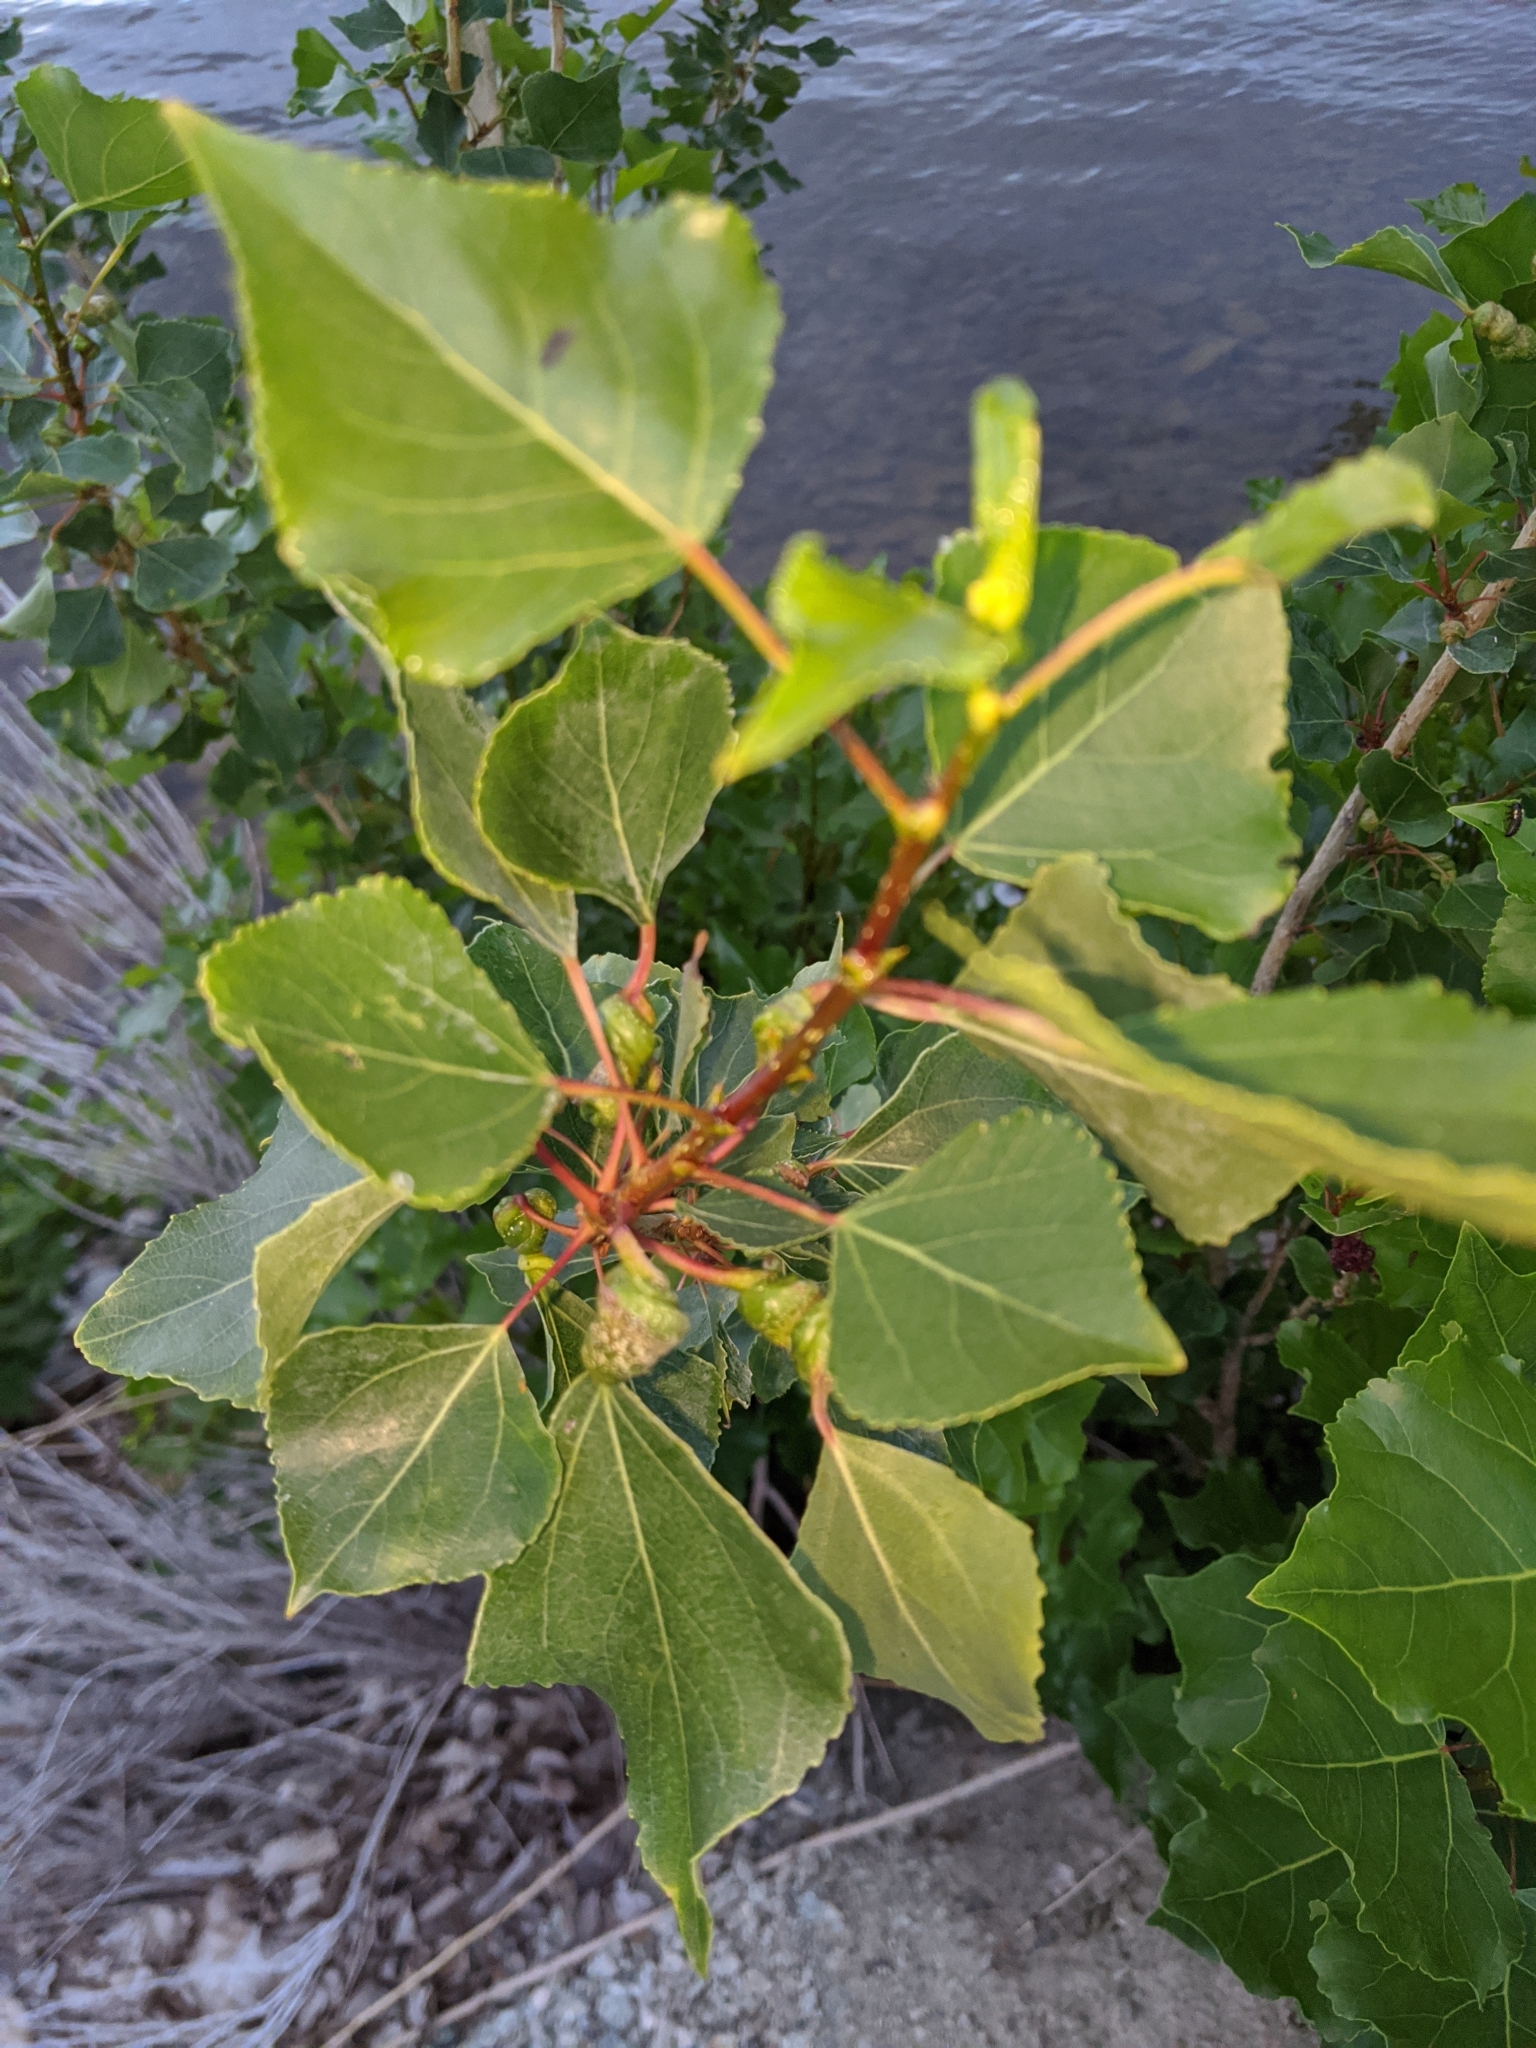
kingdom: Plantae
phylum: Tracheophyta
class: Magnoliopsida
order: Malpighiales
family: Salicaceae
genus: Populus
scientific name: Populus nigra
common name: Black poplar
